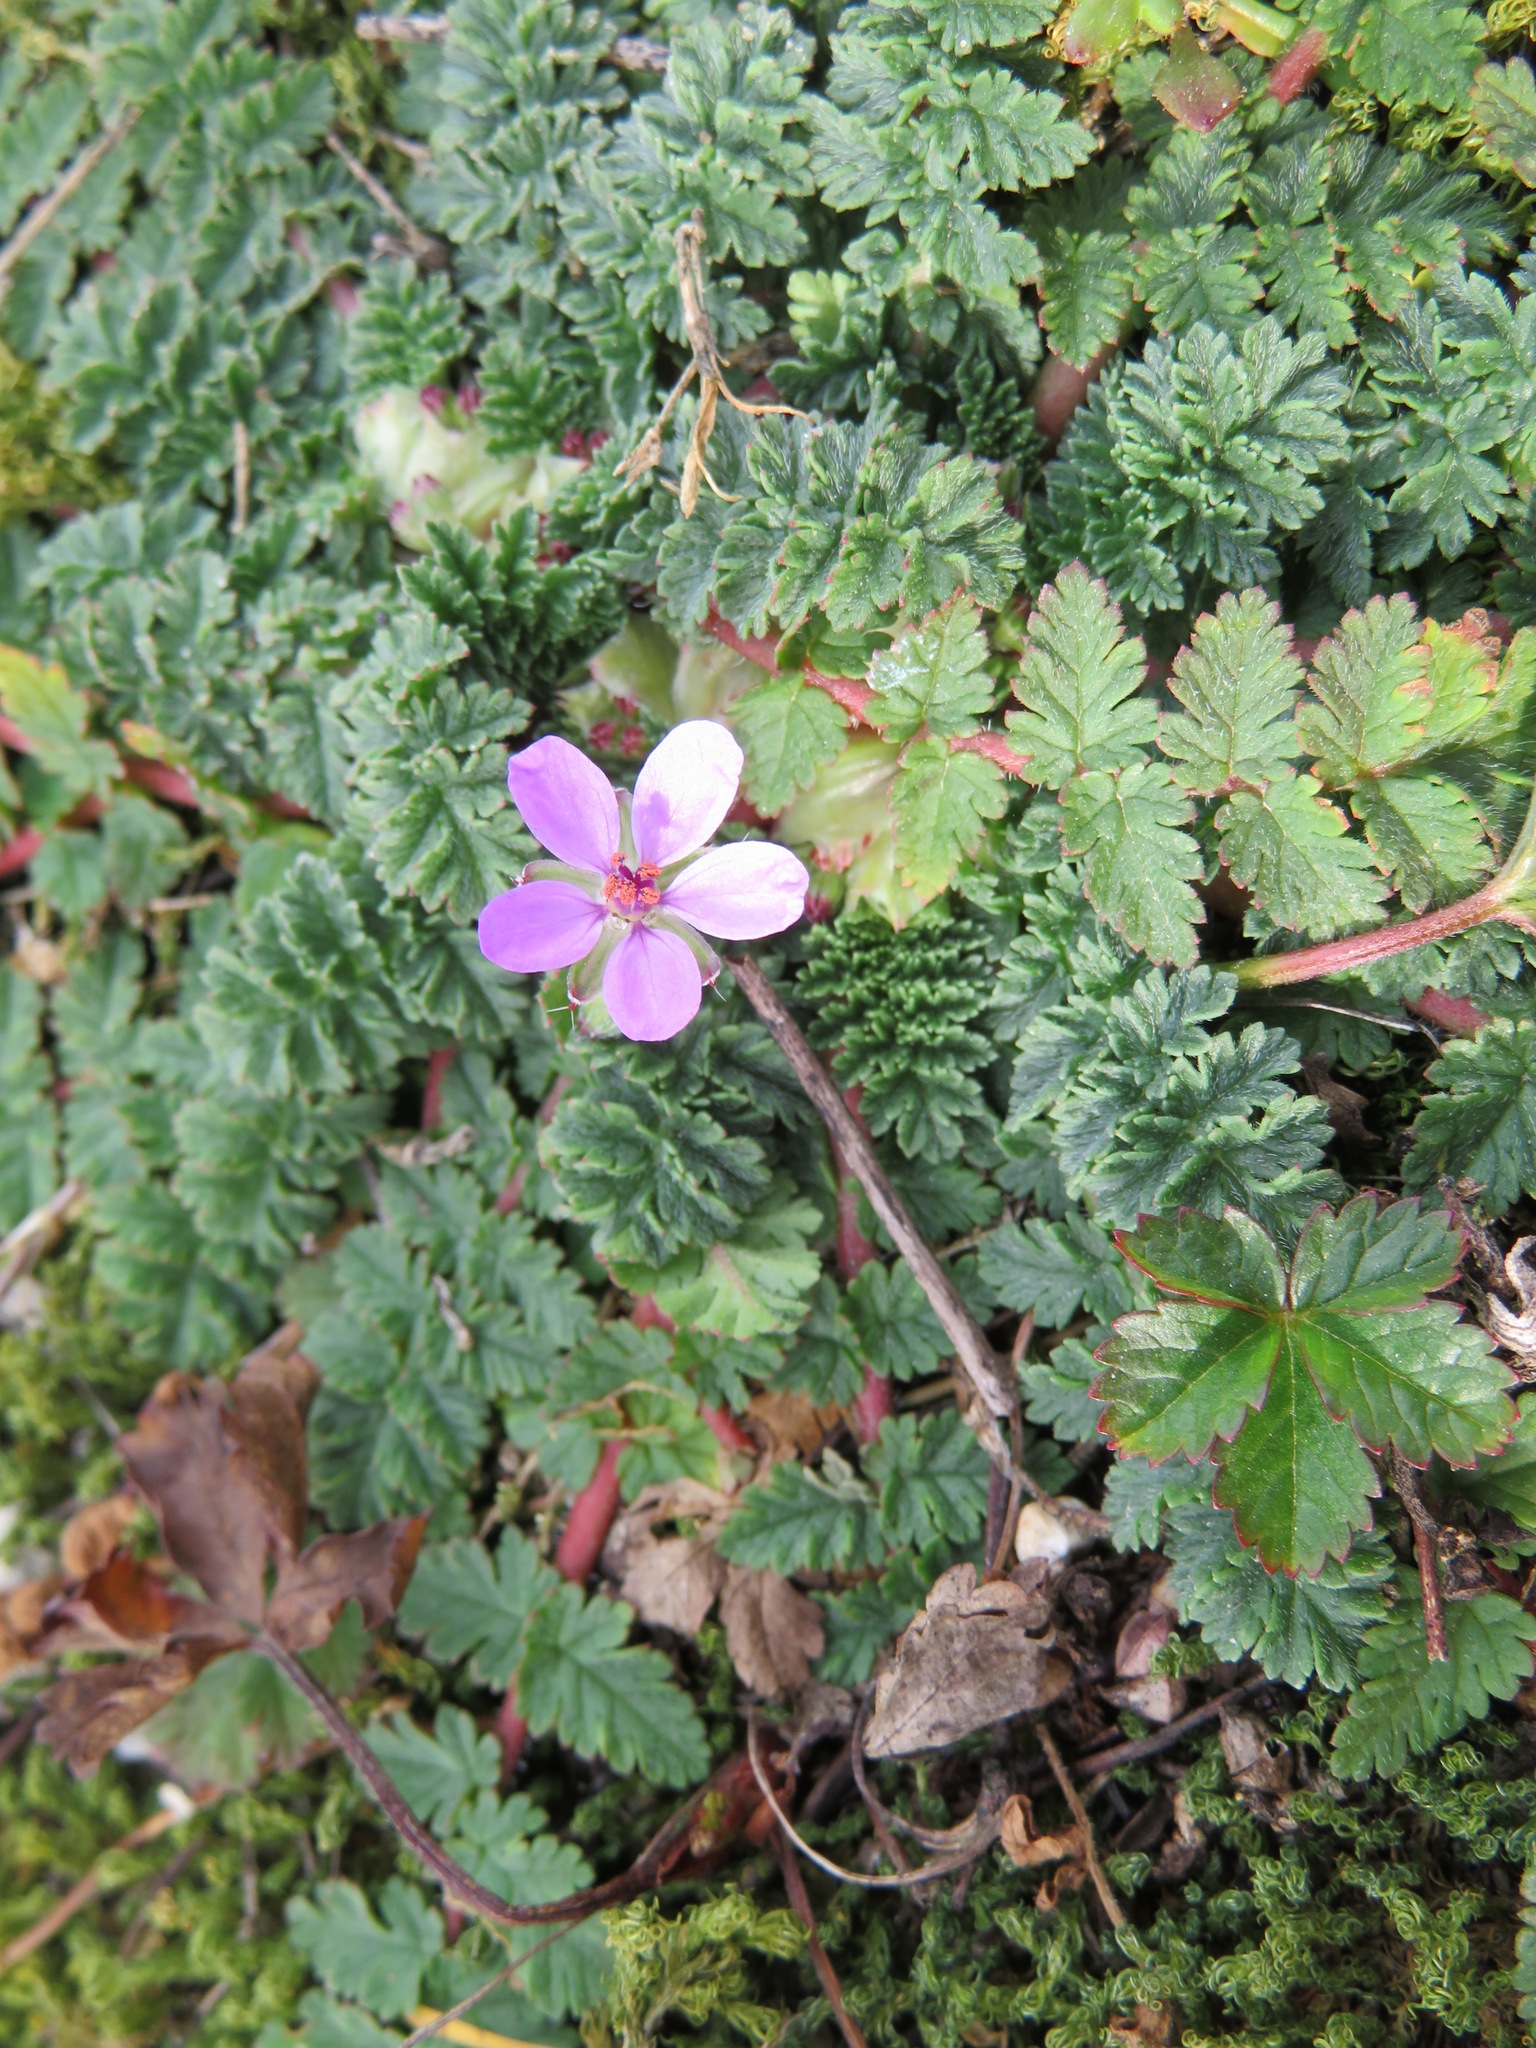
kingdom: Plantae
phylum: Tracheophyta
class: Magnoliopsida
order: Geraniales
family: Geraniaceae
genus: Erodium
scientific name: Erodium cicutarium
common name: Common stork's-bill
